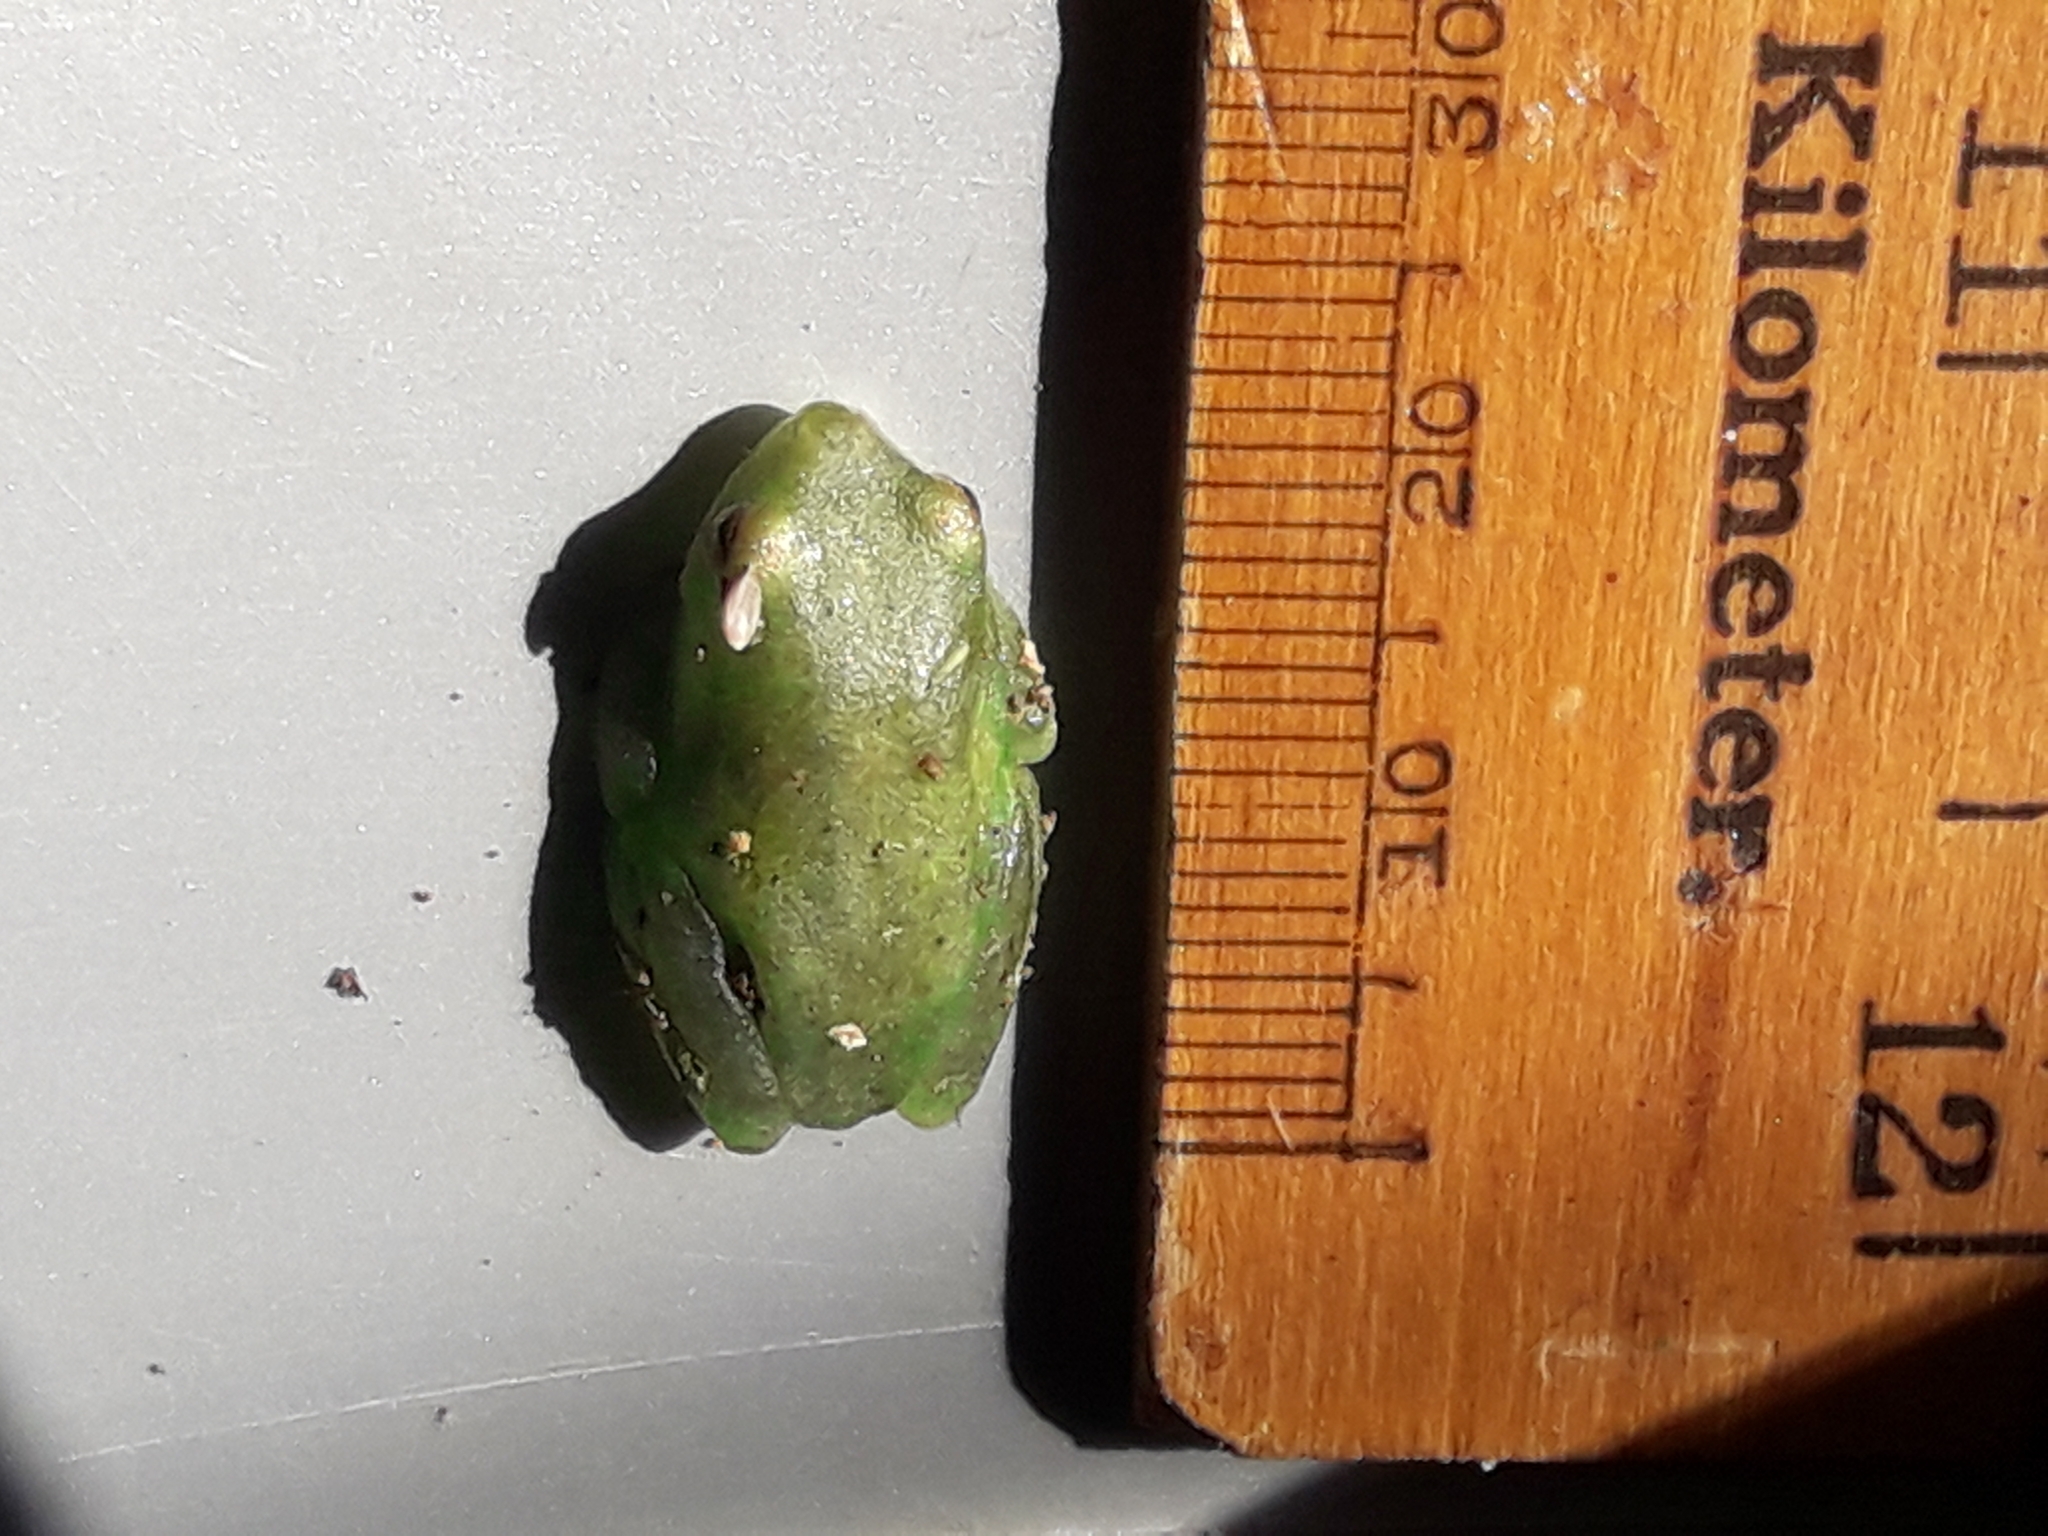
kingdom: Animalia
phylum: Chordata
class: Amphibia
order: Anura
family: Hyperoliidae
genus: Hyperolius
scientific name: Hyperolius pusillus
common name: Water lily reed frog
